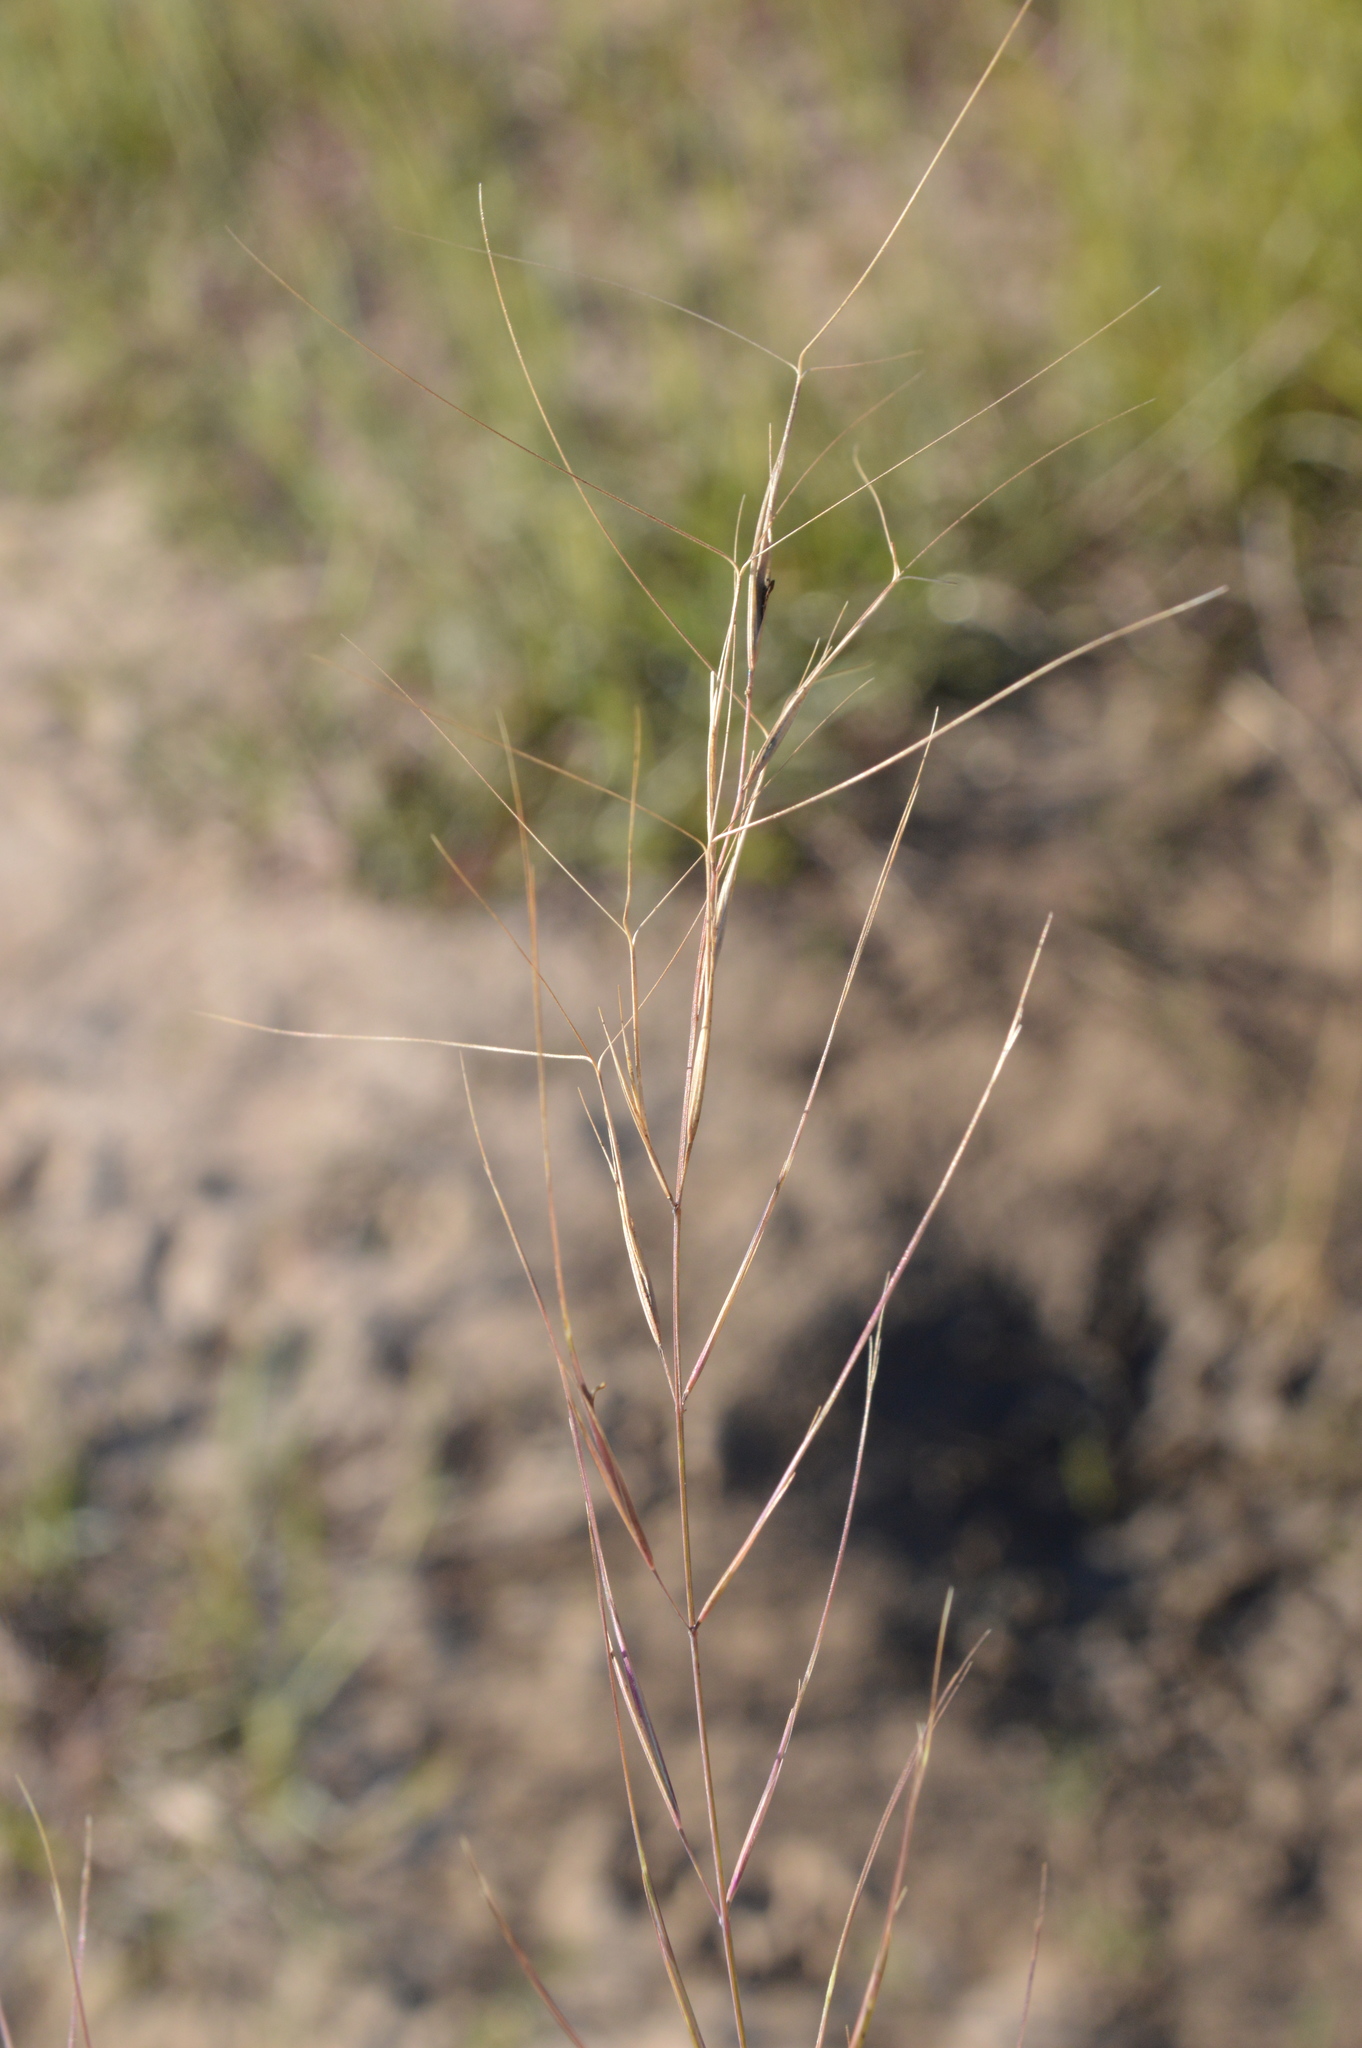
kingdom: Plantae
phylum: Tracheophyta
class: Liliopsida
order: Poales
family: Poaceae
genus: Aristida
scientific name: Aristida oligantha
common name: Few-flowered aristida
